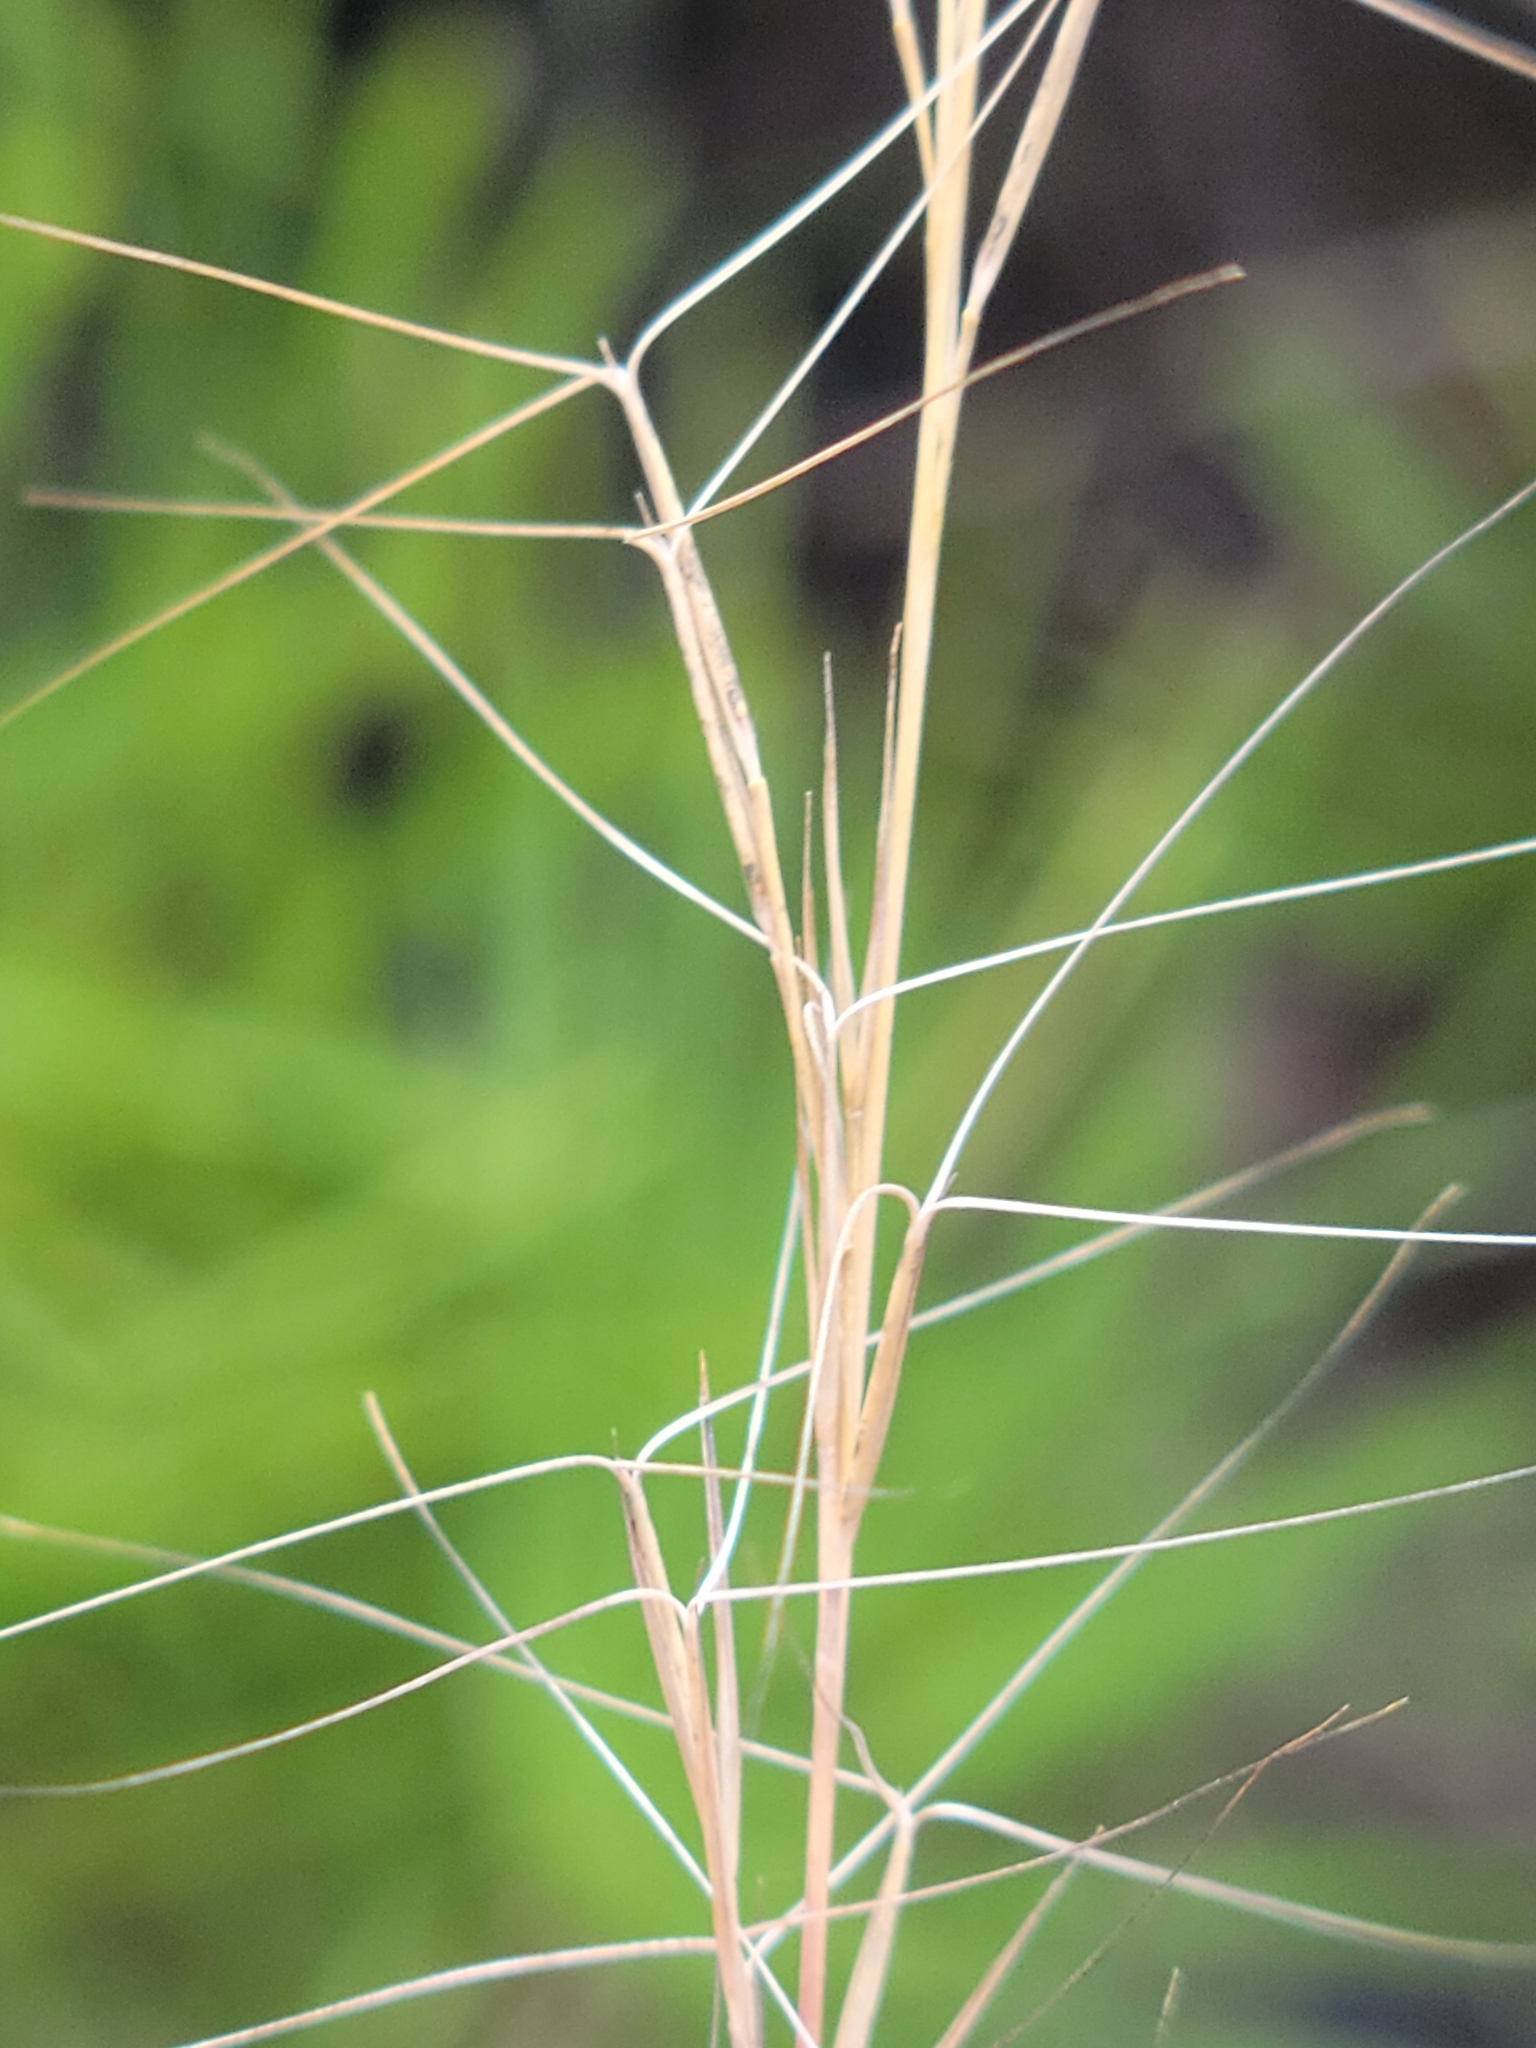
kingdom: Plantae
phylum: Tracheophyta
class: Liliopsida
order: Poales
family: Poaceae
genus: Aristida
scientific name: Aristida purpurascens
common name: Arrow-feather
